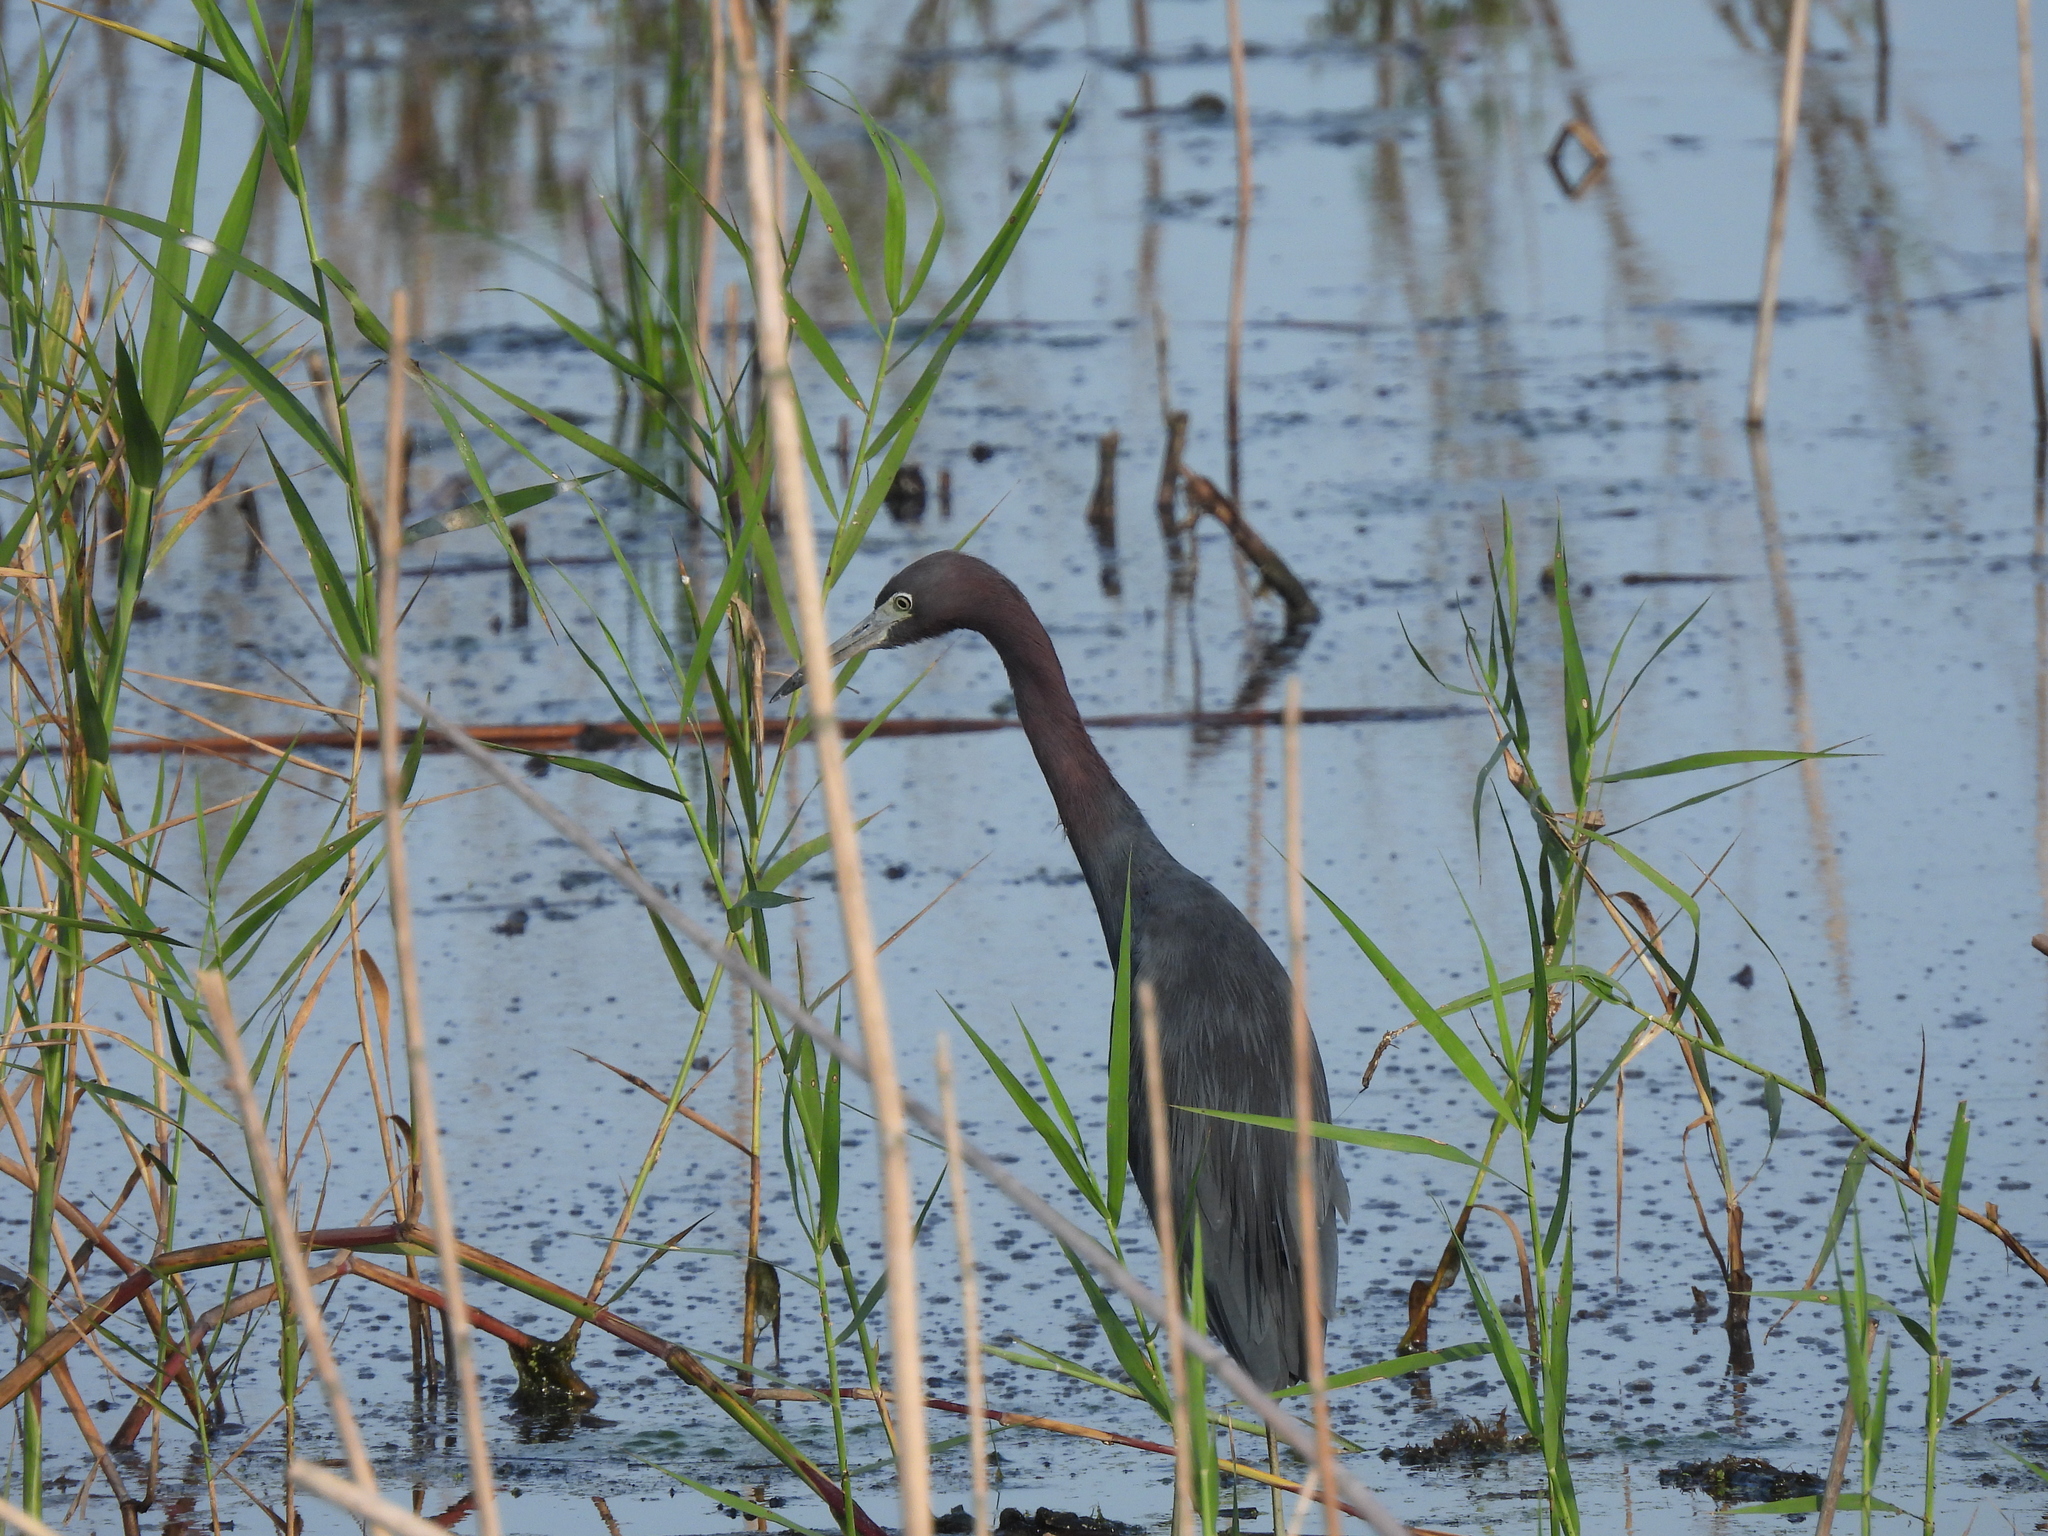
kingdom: Animalia
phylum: Chordata
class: Aves
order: Pelecaniformes
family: Ardeidae
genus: Egretta
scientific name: Egretta caerulea
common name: Little blue heron
